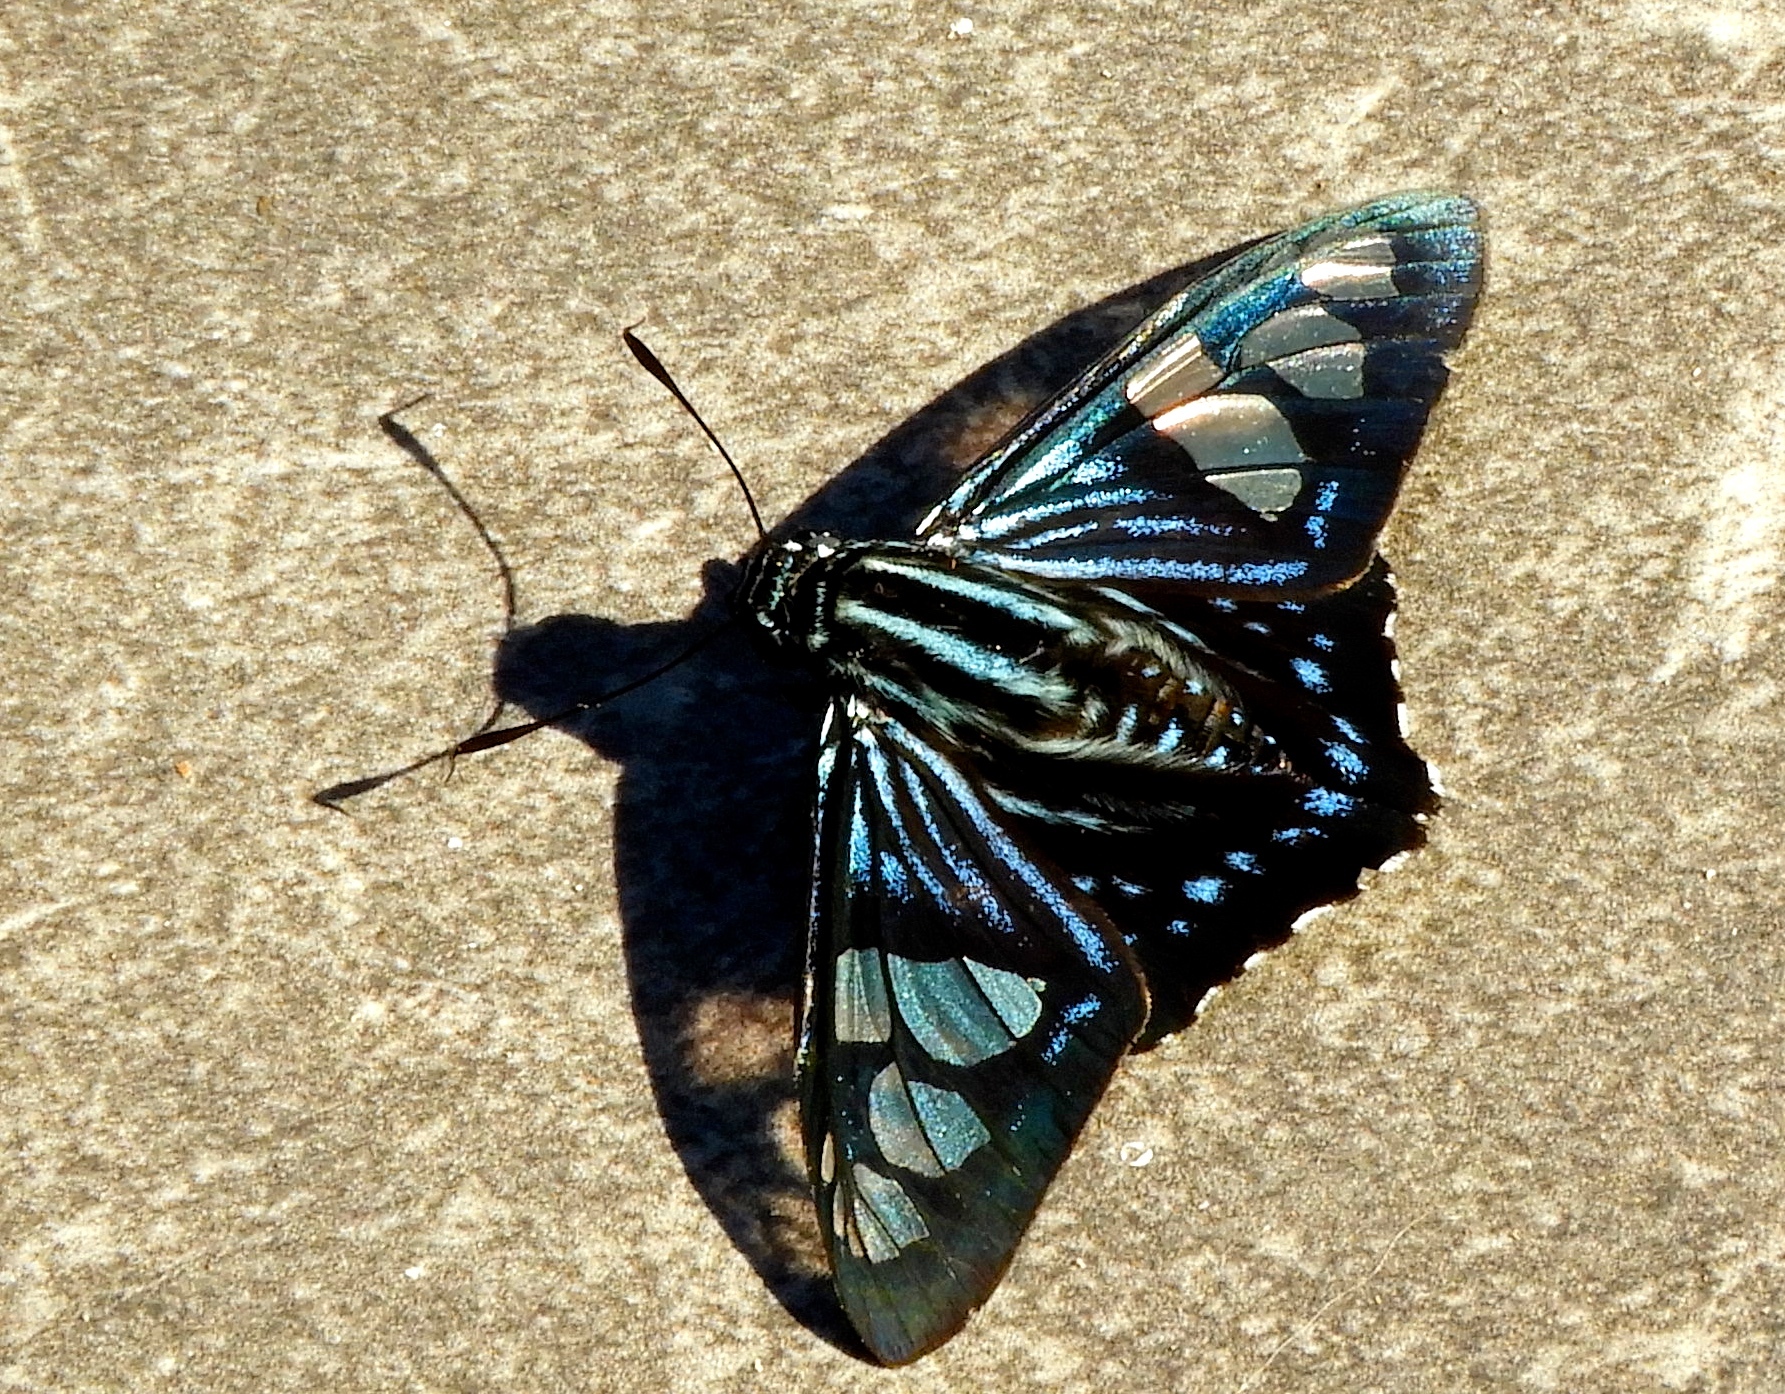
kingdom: Animalia
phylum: Arthropoda
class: Insecta
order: Lepidoptera
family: Hesperiidae
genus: Phocides
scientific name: Phocides pigmalion
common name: Mangrove skipper
